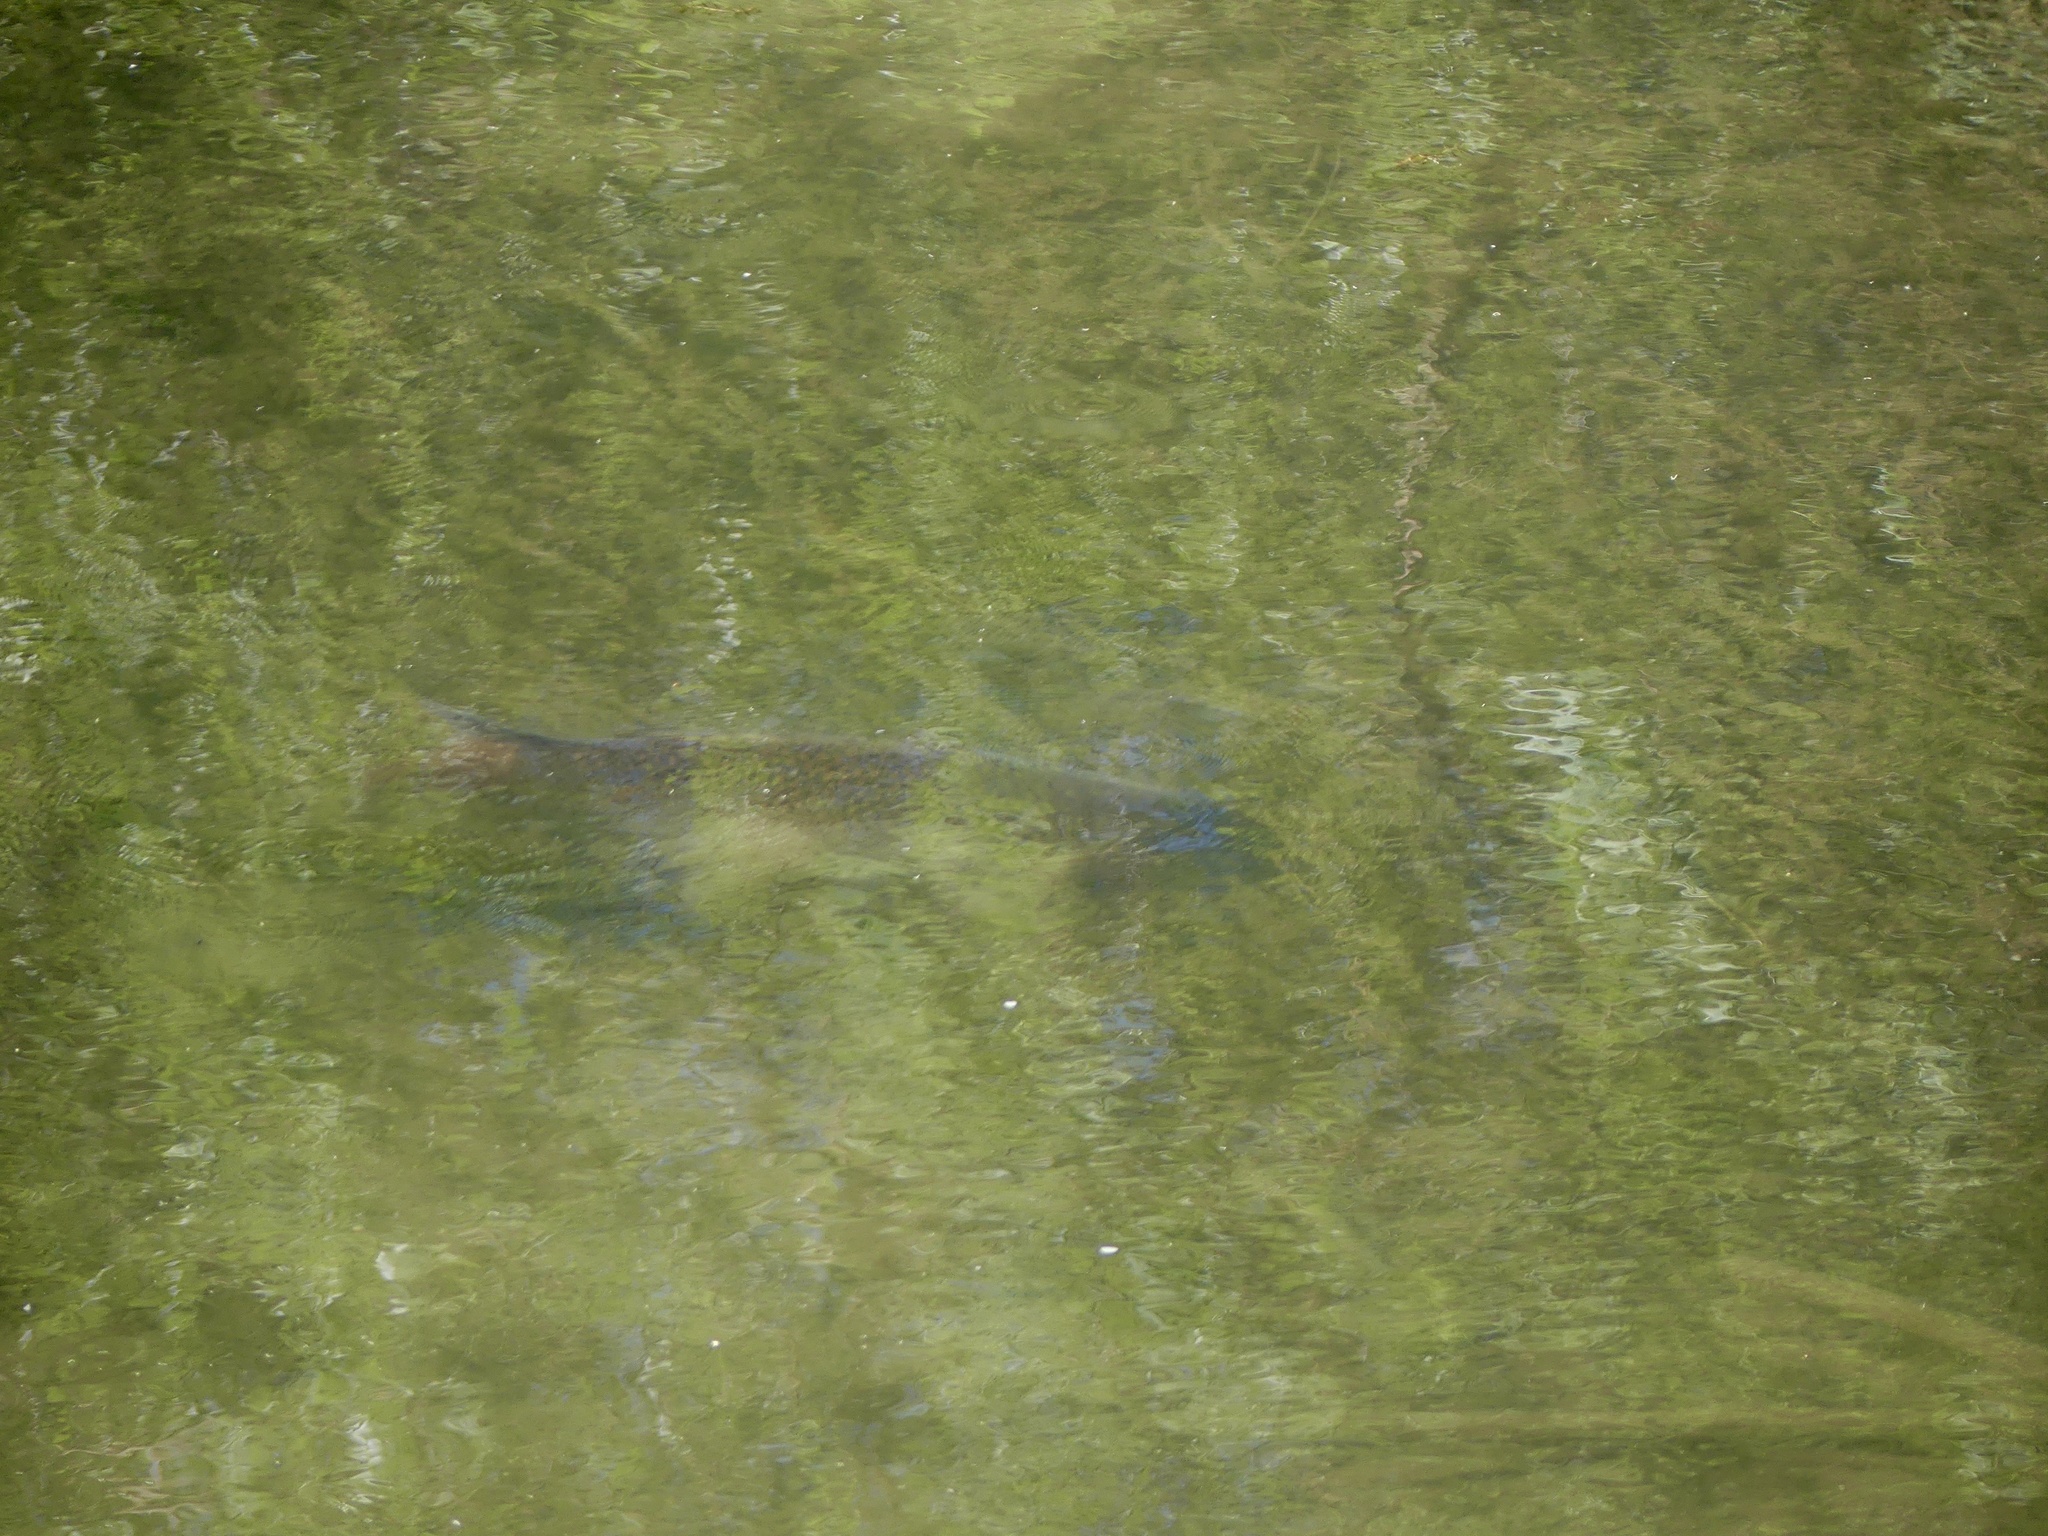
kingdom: Animalia
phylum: Chordata
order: Cypriniformes
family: Cyprinidae
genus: Cyprinus
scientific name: Cyprinus carpio
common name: Common carp
